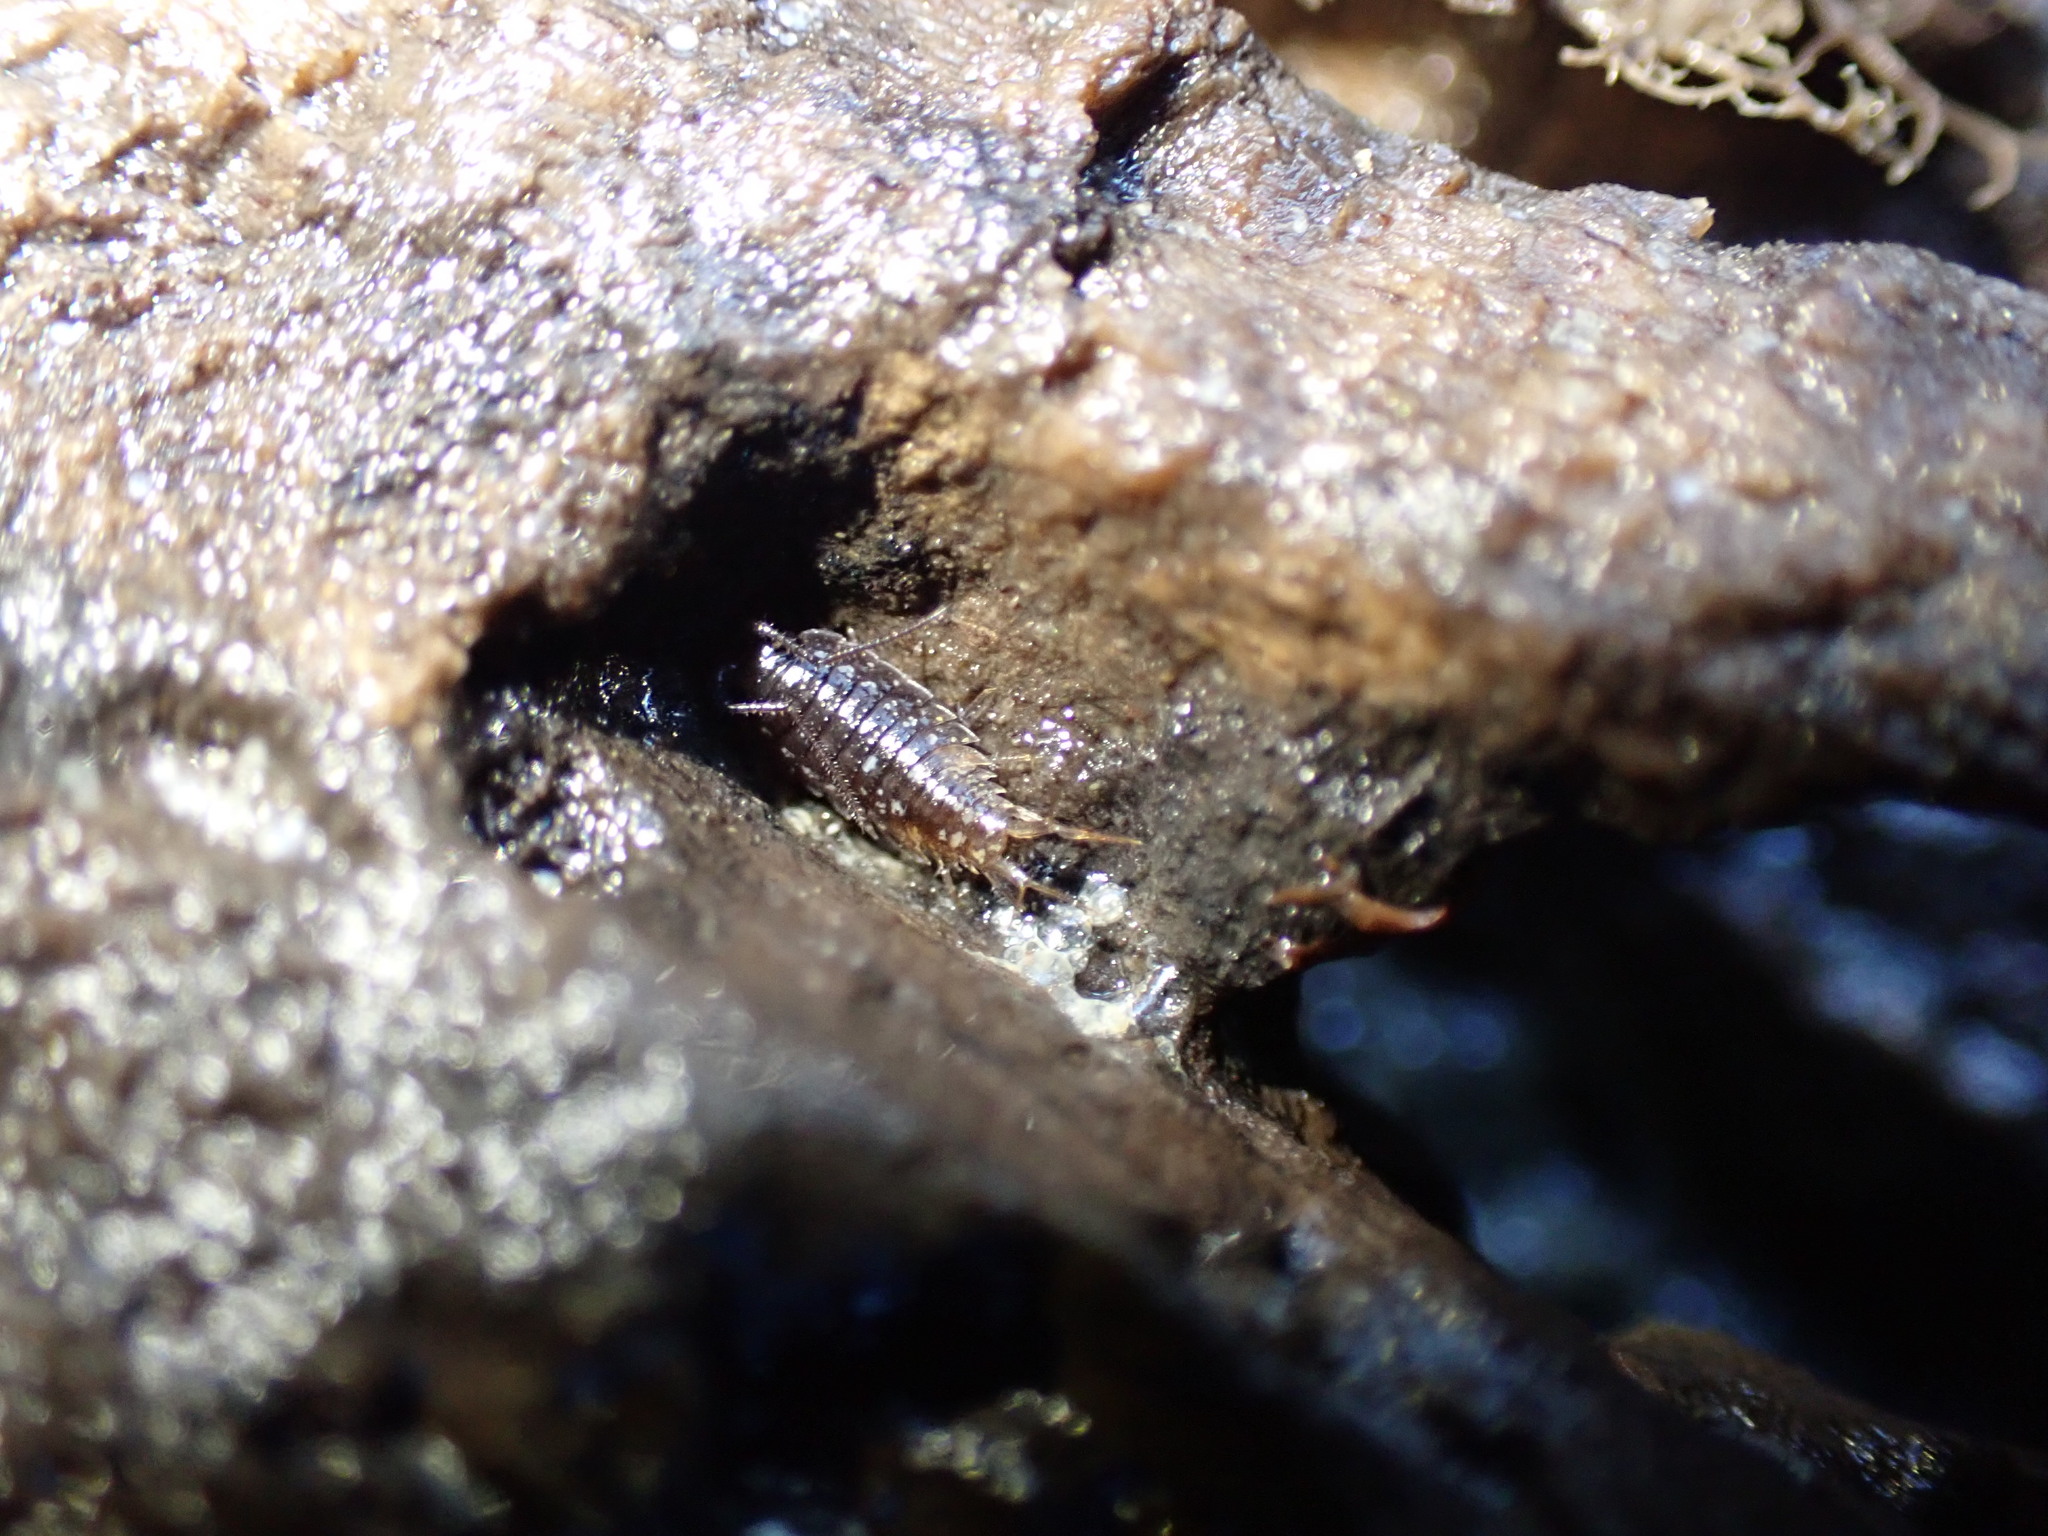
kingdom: Animalia
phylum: Arthropoda
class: Malacostraca
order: Isopoda
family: Ligiidae
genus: Ligia
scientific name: Ligia novizealandiae
